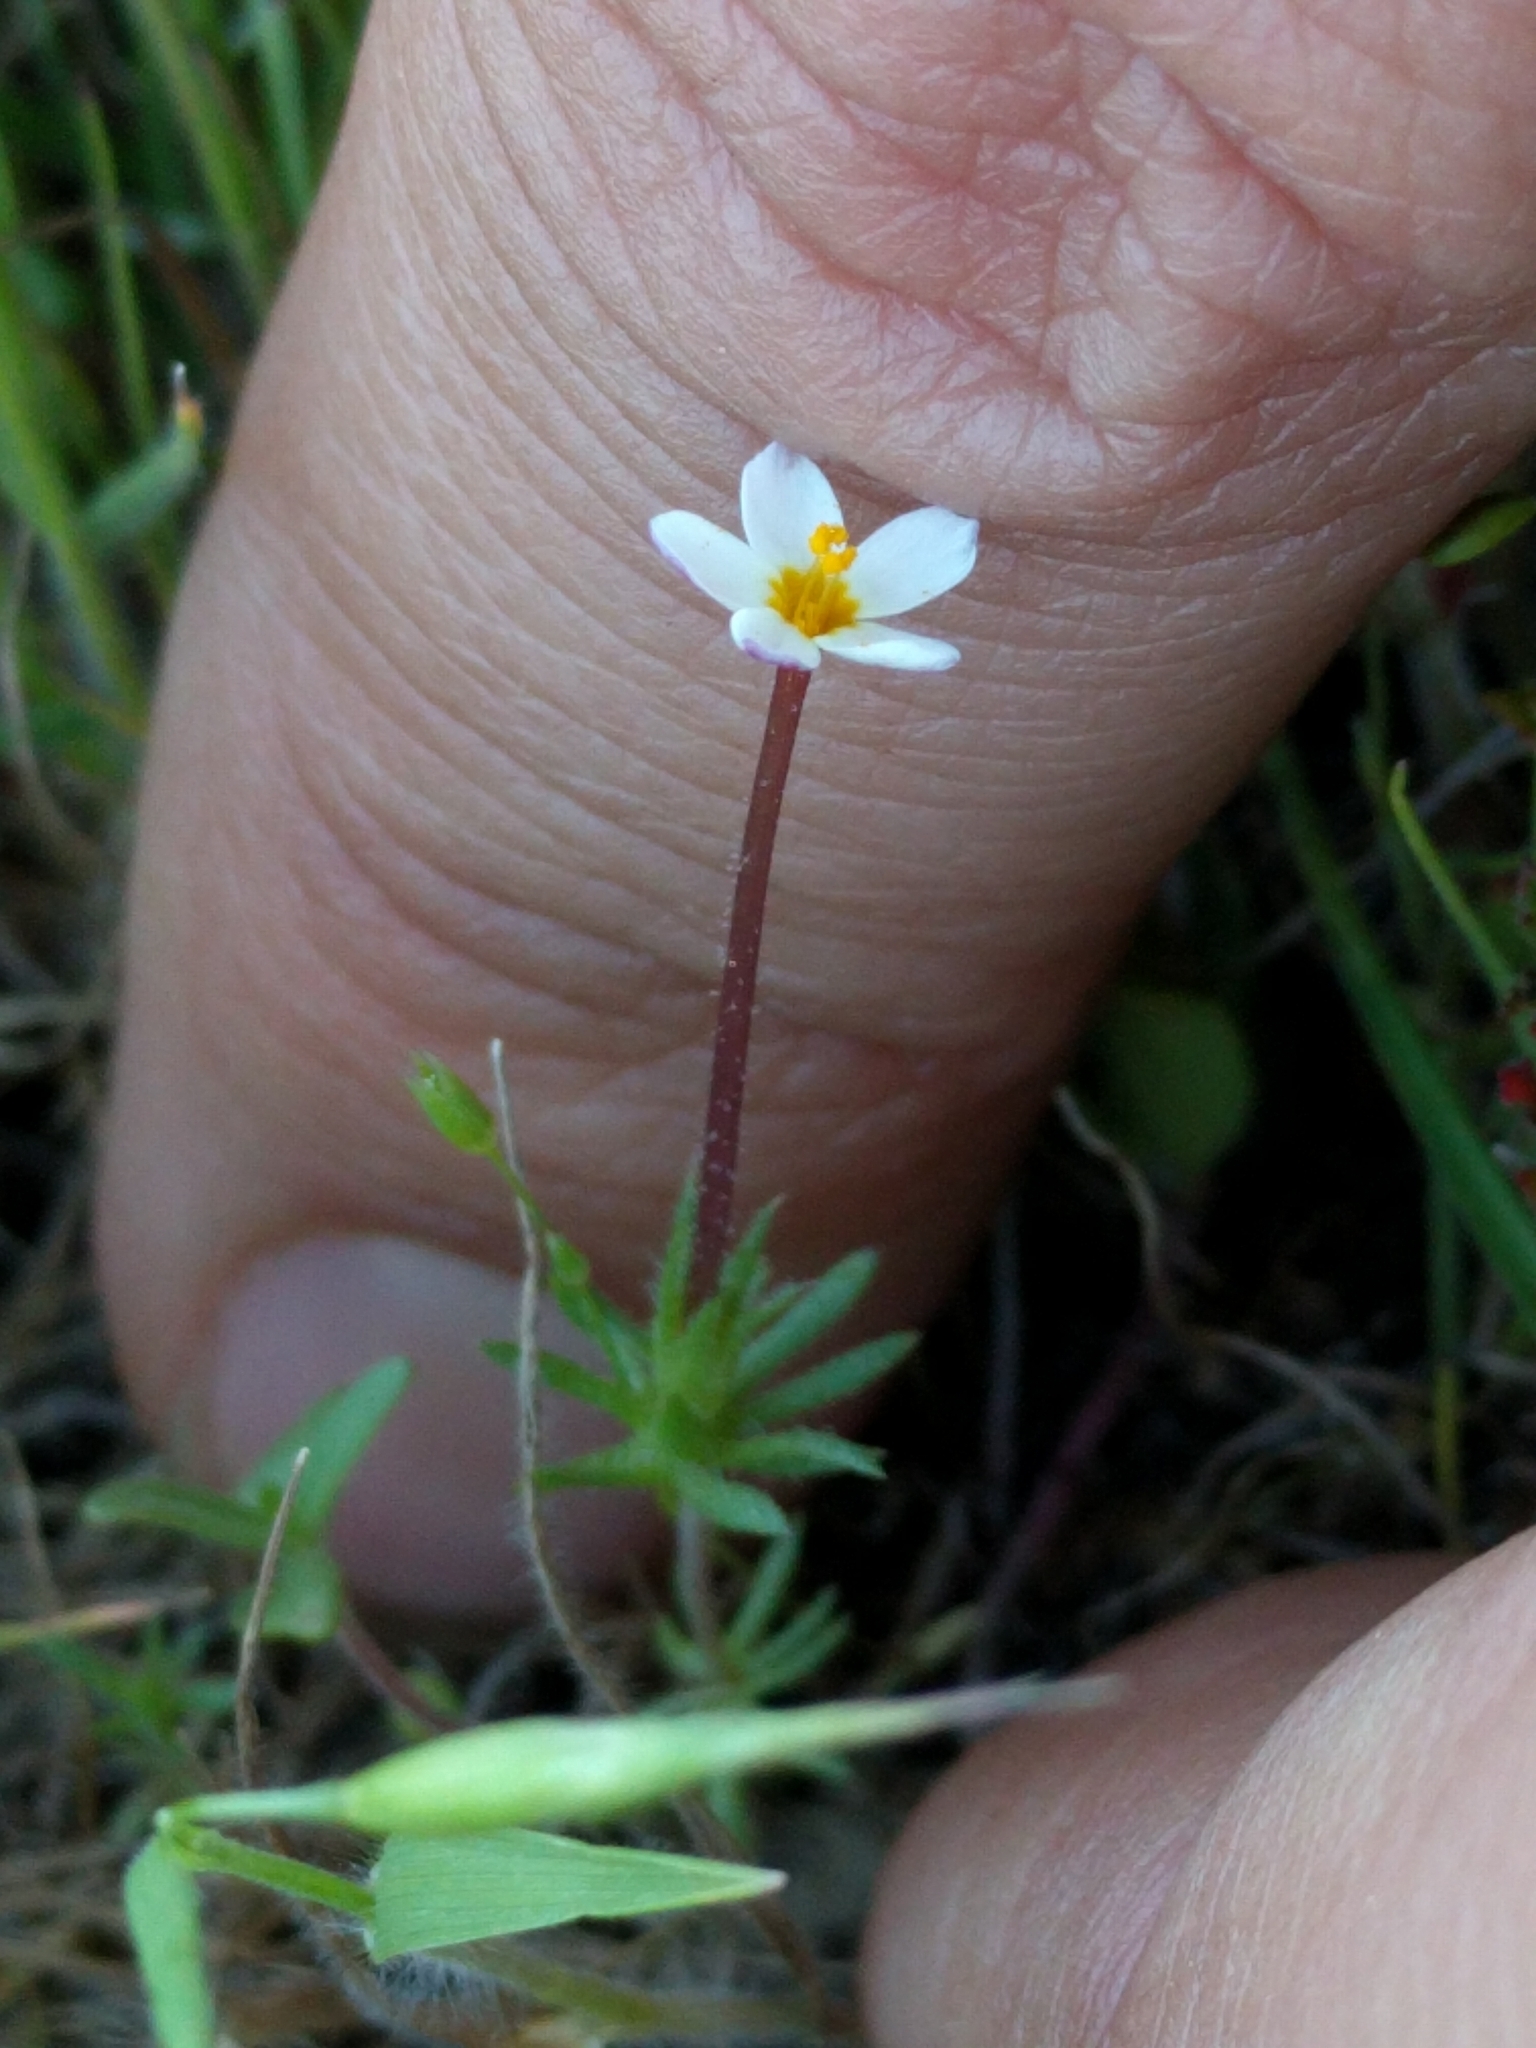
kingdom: Plantae
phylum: Tracheophyta
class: Magnoliopsida
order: Ericales
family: Polemoniaceae
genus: Leptosiphon
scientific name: Leptosiphon bicolor
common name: True babystars
